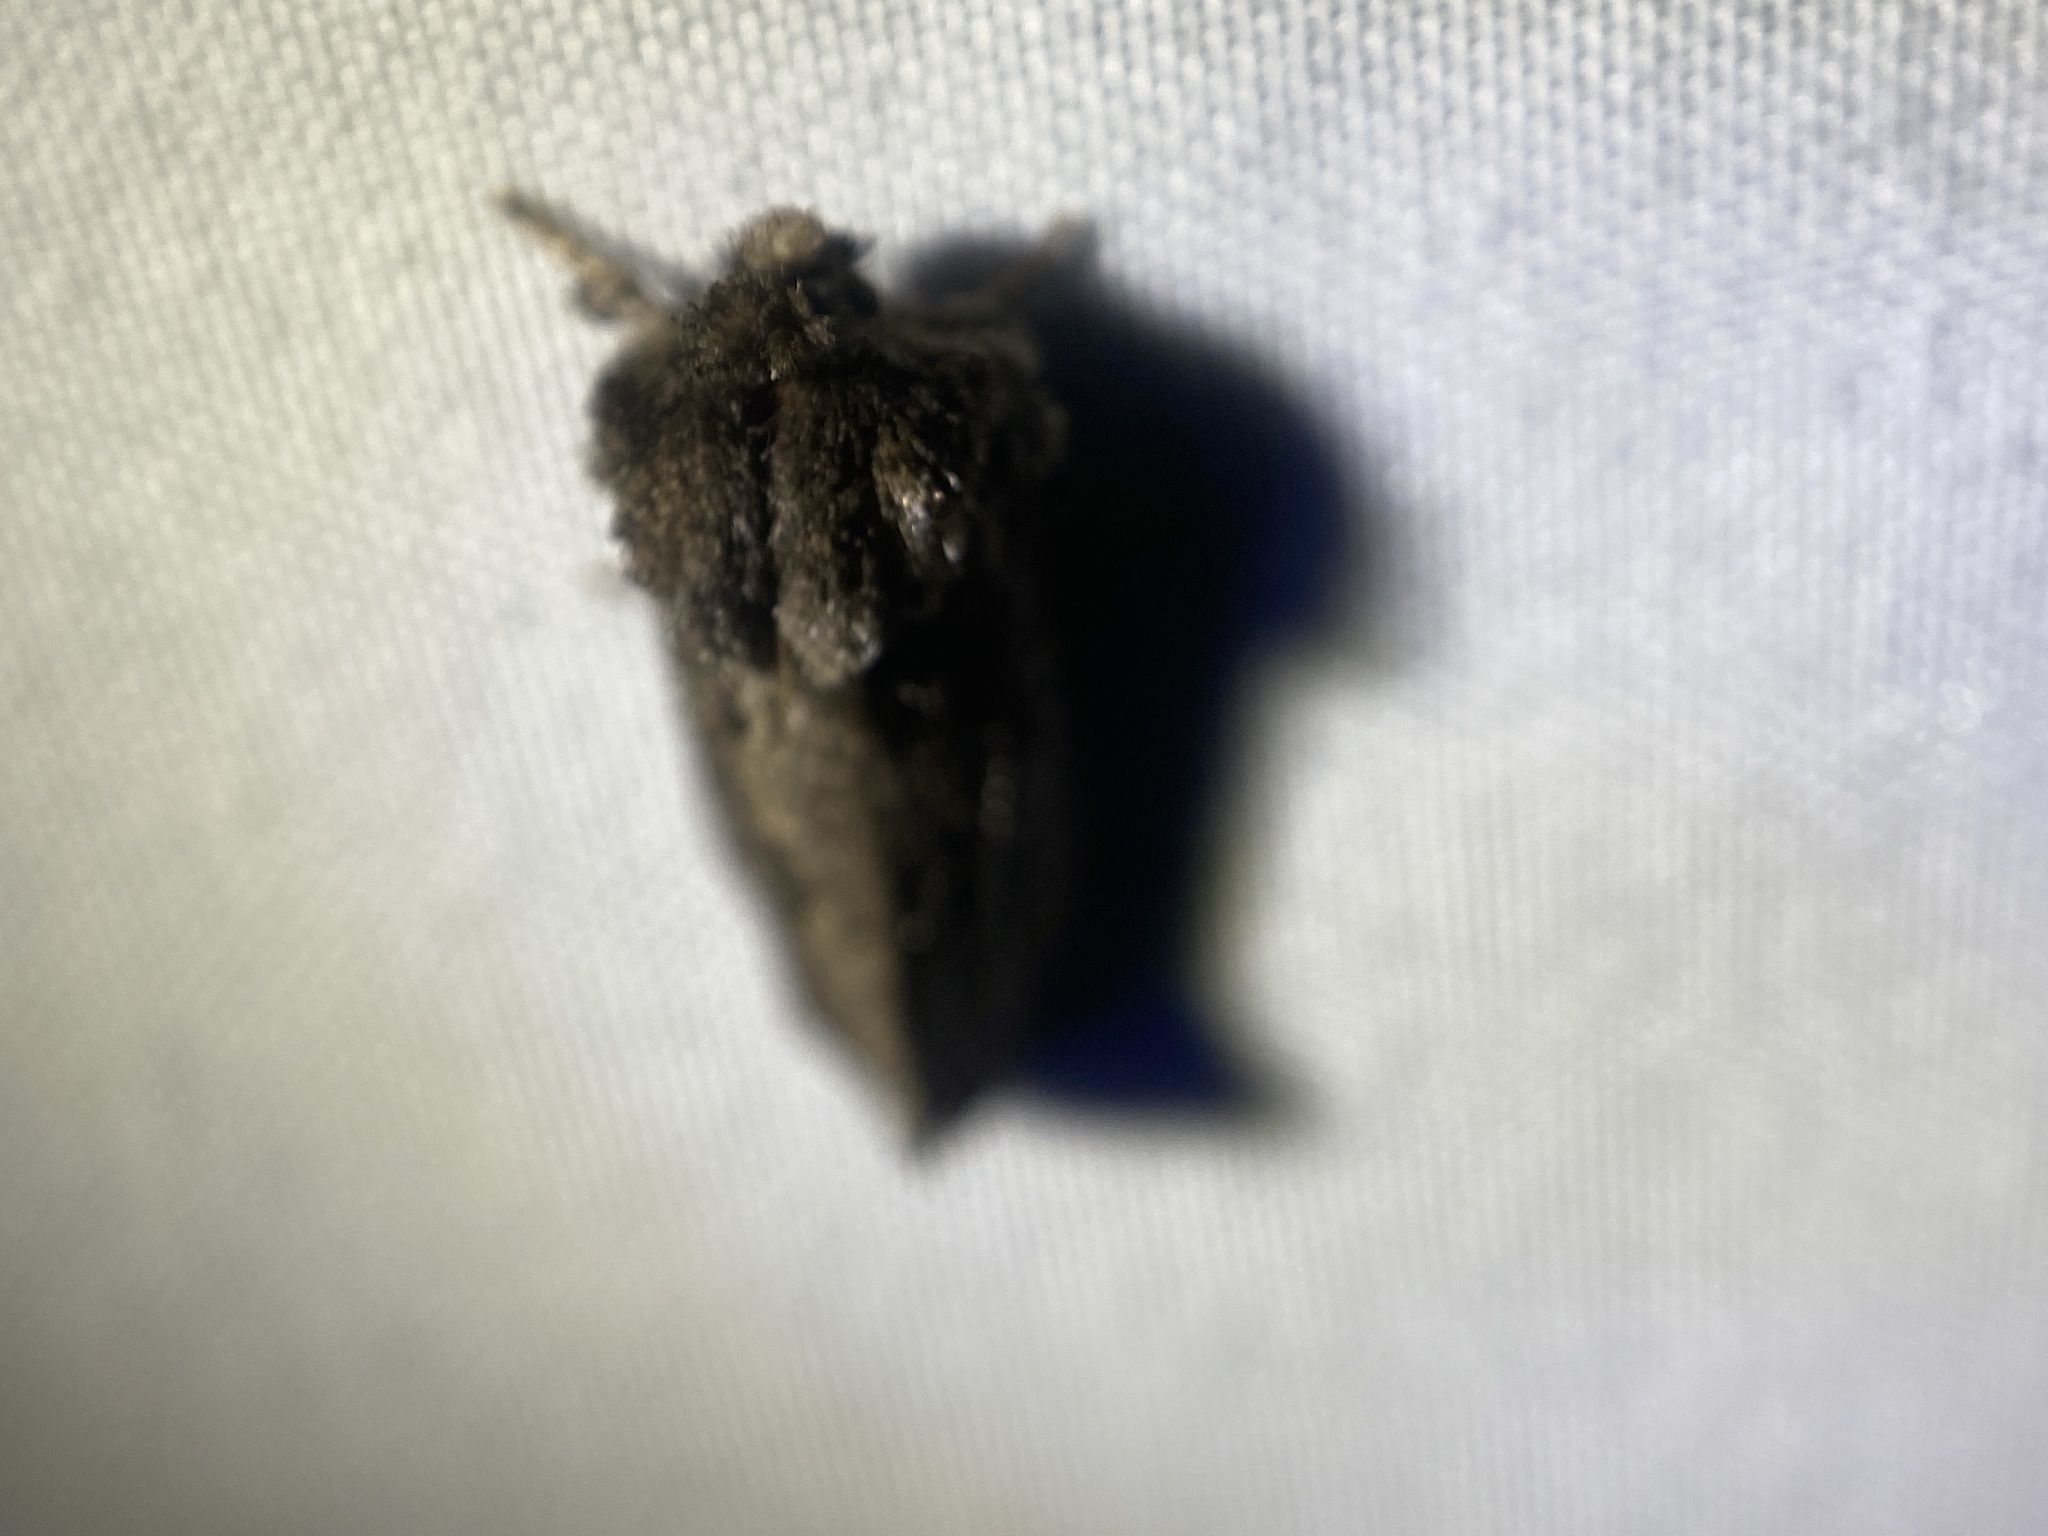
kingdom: Animalia
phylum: Arthropoda
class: Insecta
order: Lepidoptera
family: Tineidae
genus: Acrolophus
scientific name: Acrolophus arcanella
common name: Arcane grass tubeworm moth
